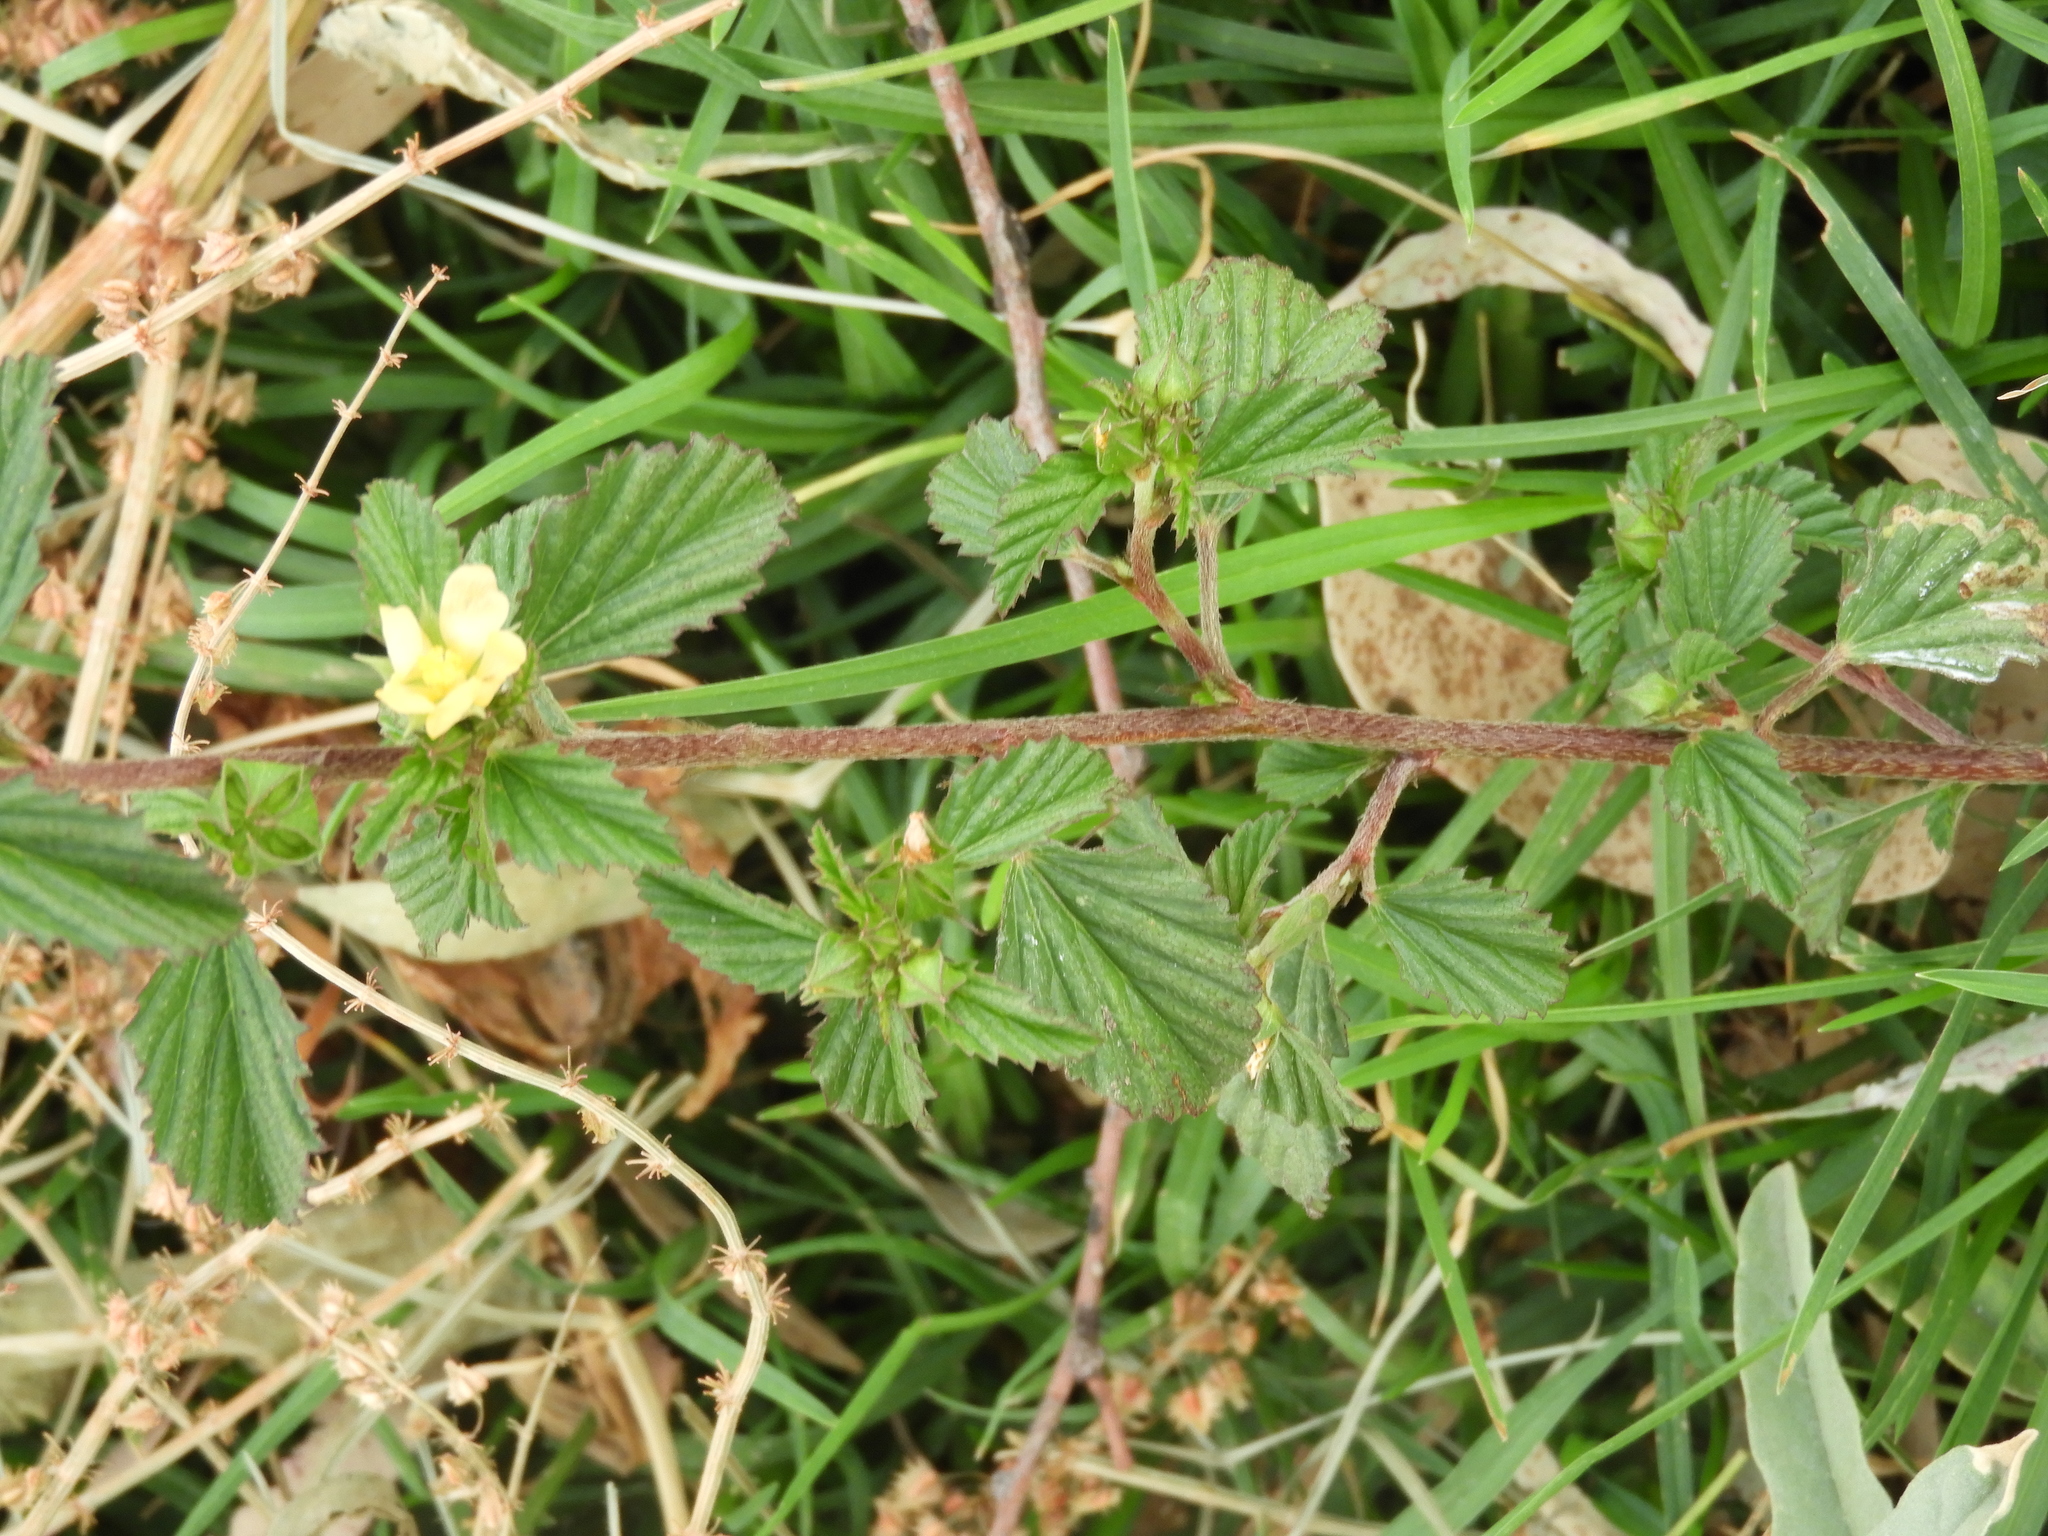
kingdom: Plantae
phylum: Tracheophyta
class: Magnoliopsida
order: Malvales
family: Malvaceae
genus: Malvastrum
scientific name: Malvastrum coromandelianum
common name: Threelobe false mallow
